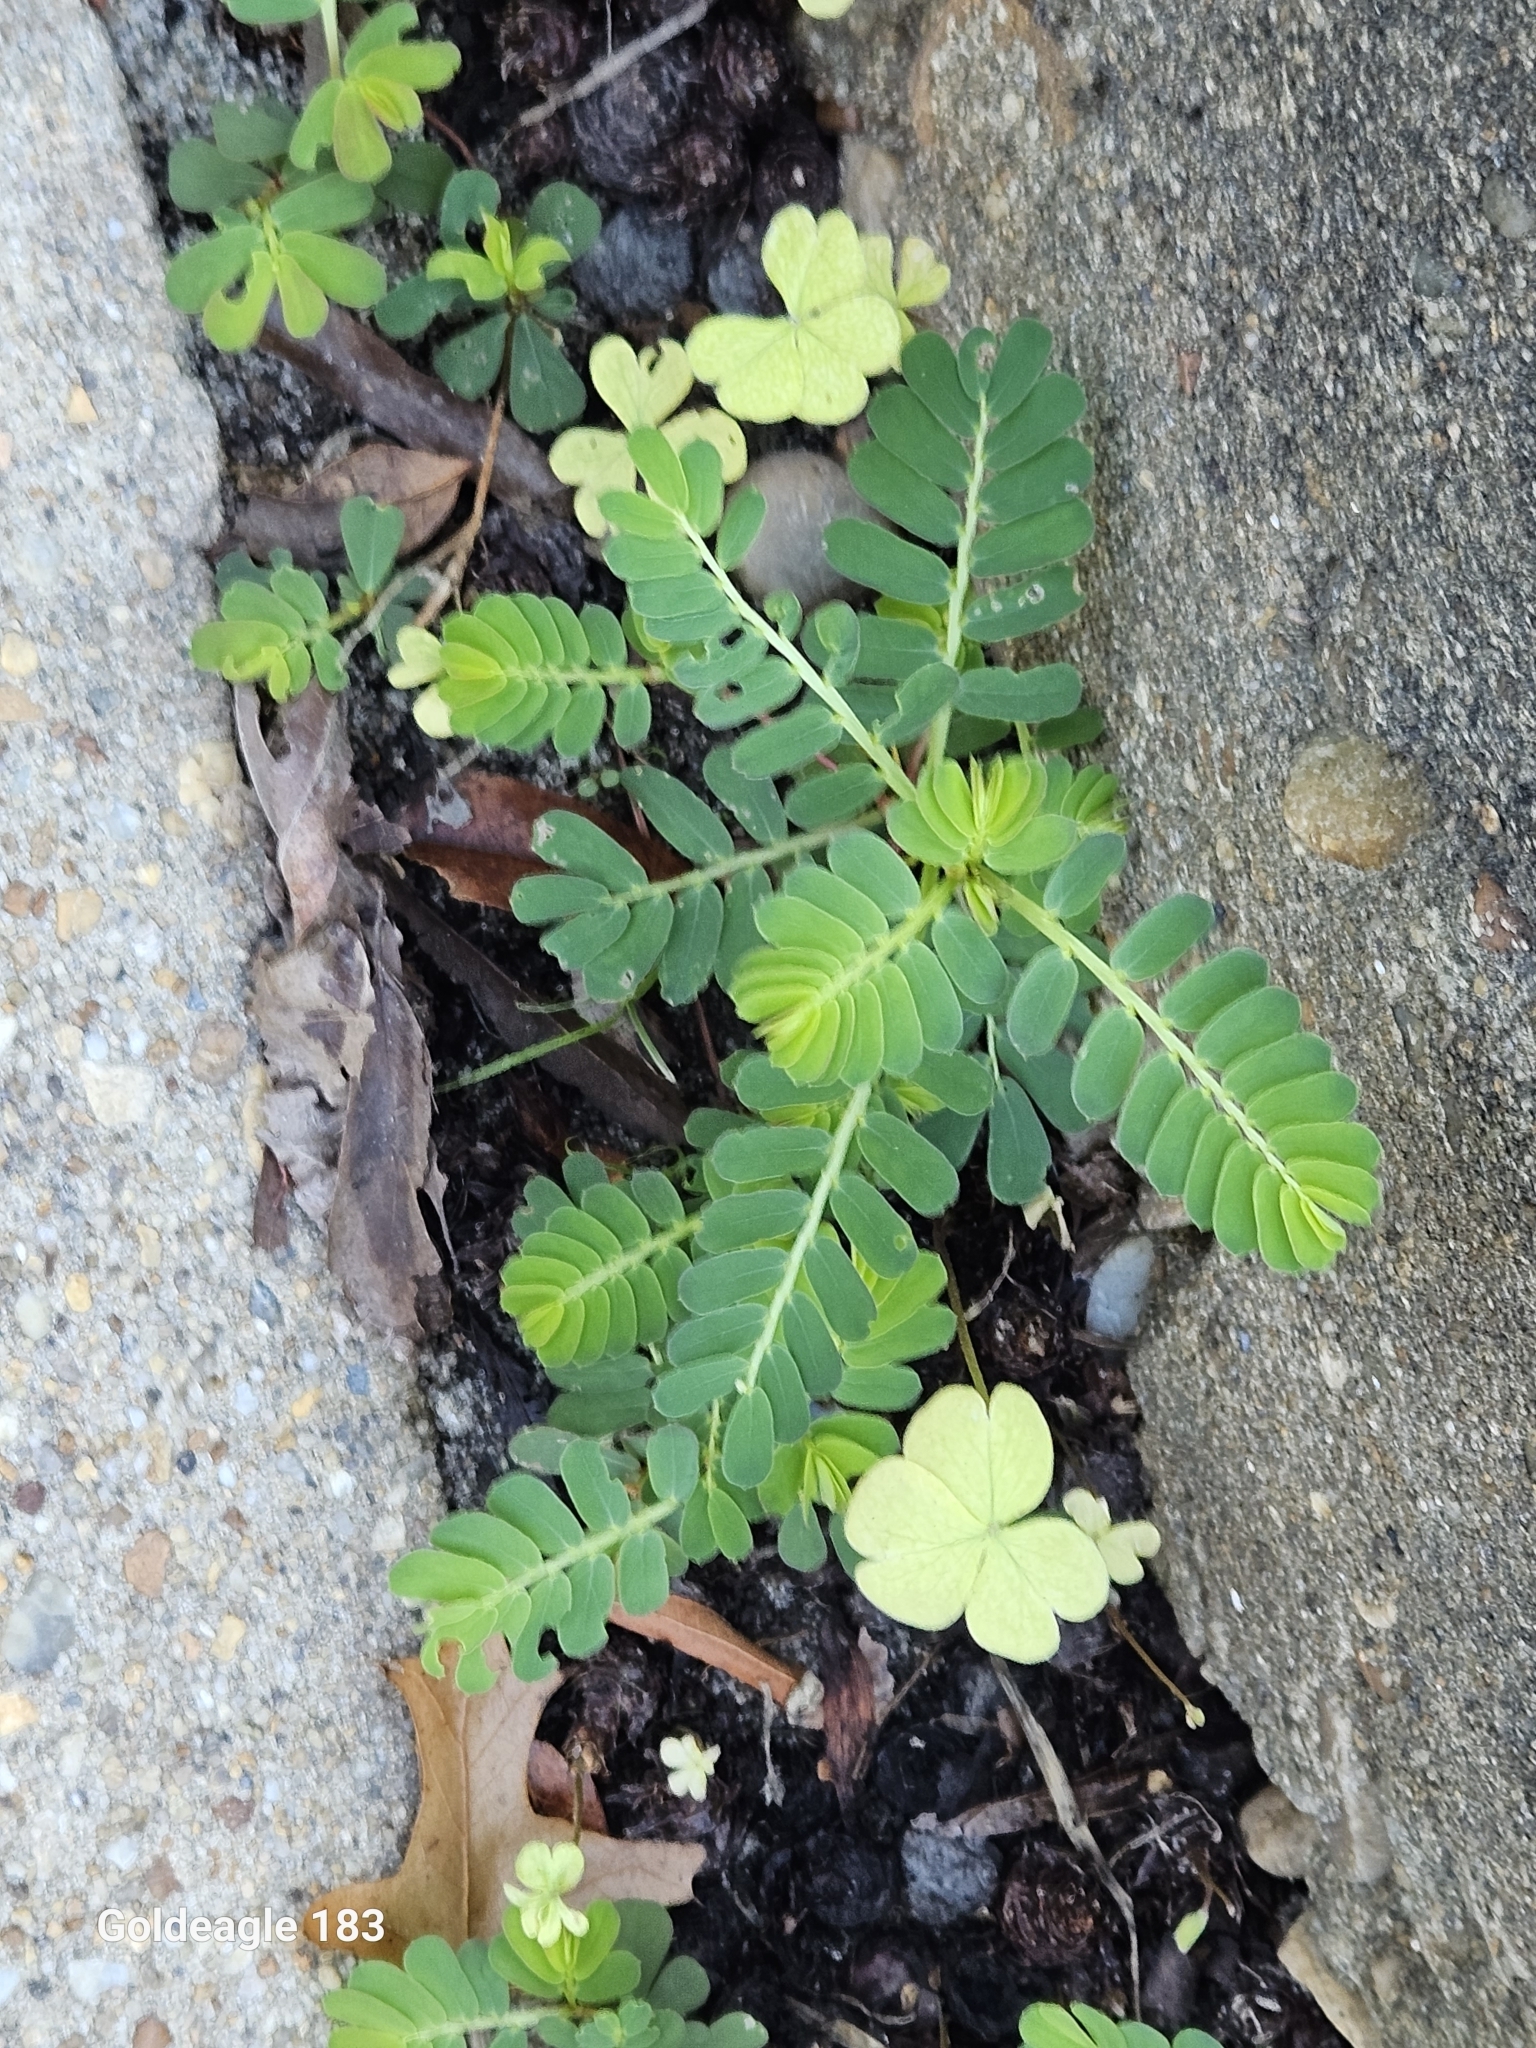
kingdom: Plantae
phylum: Tracheophyta
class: Magnoliopsida
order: Malpighiales
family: Phyllanthaceae
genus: Phyllanthus
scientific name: Phyllanthus urinaria
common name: Chamber bitter
